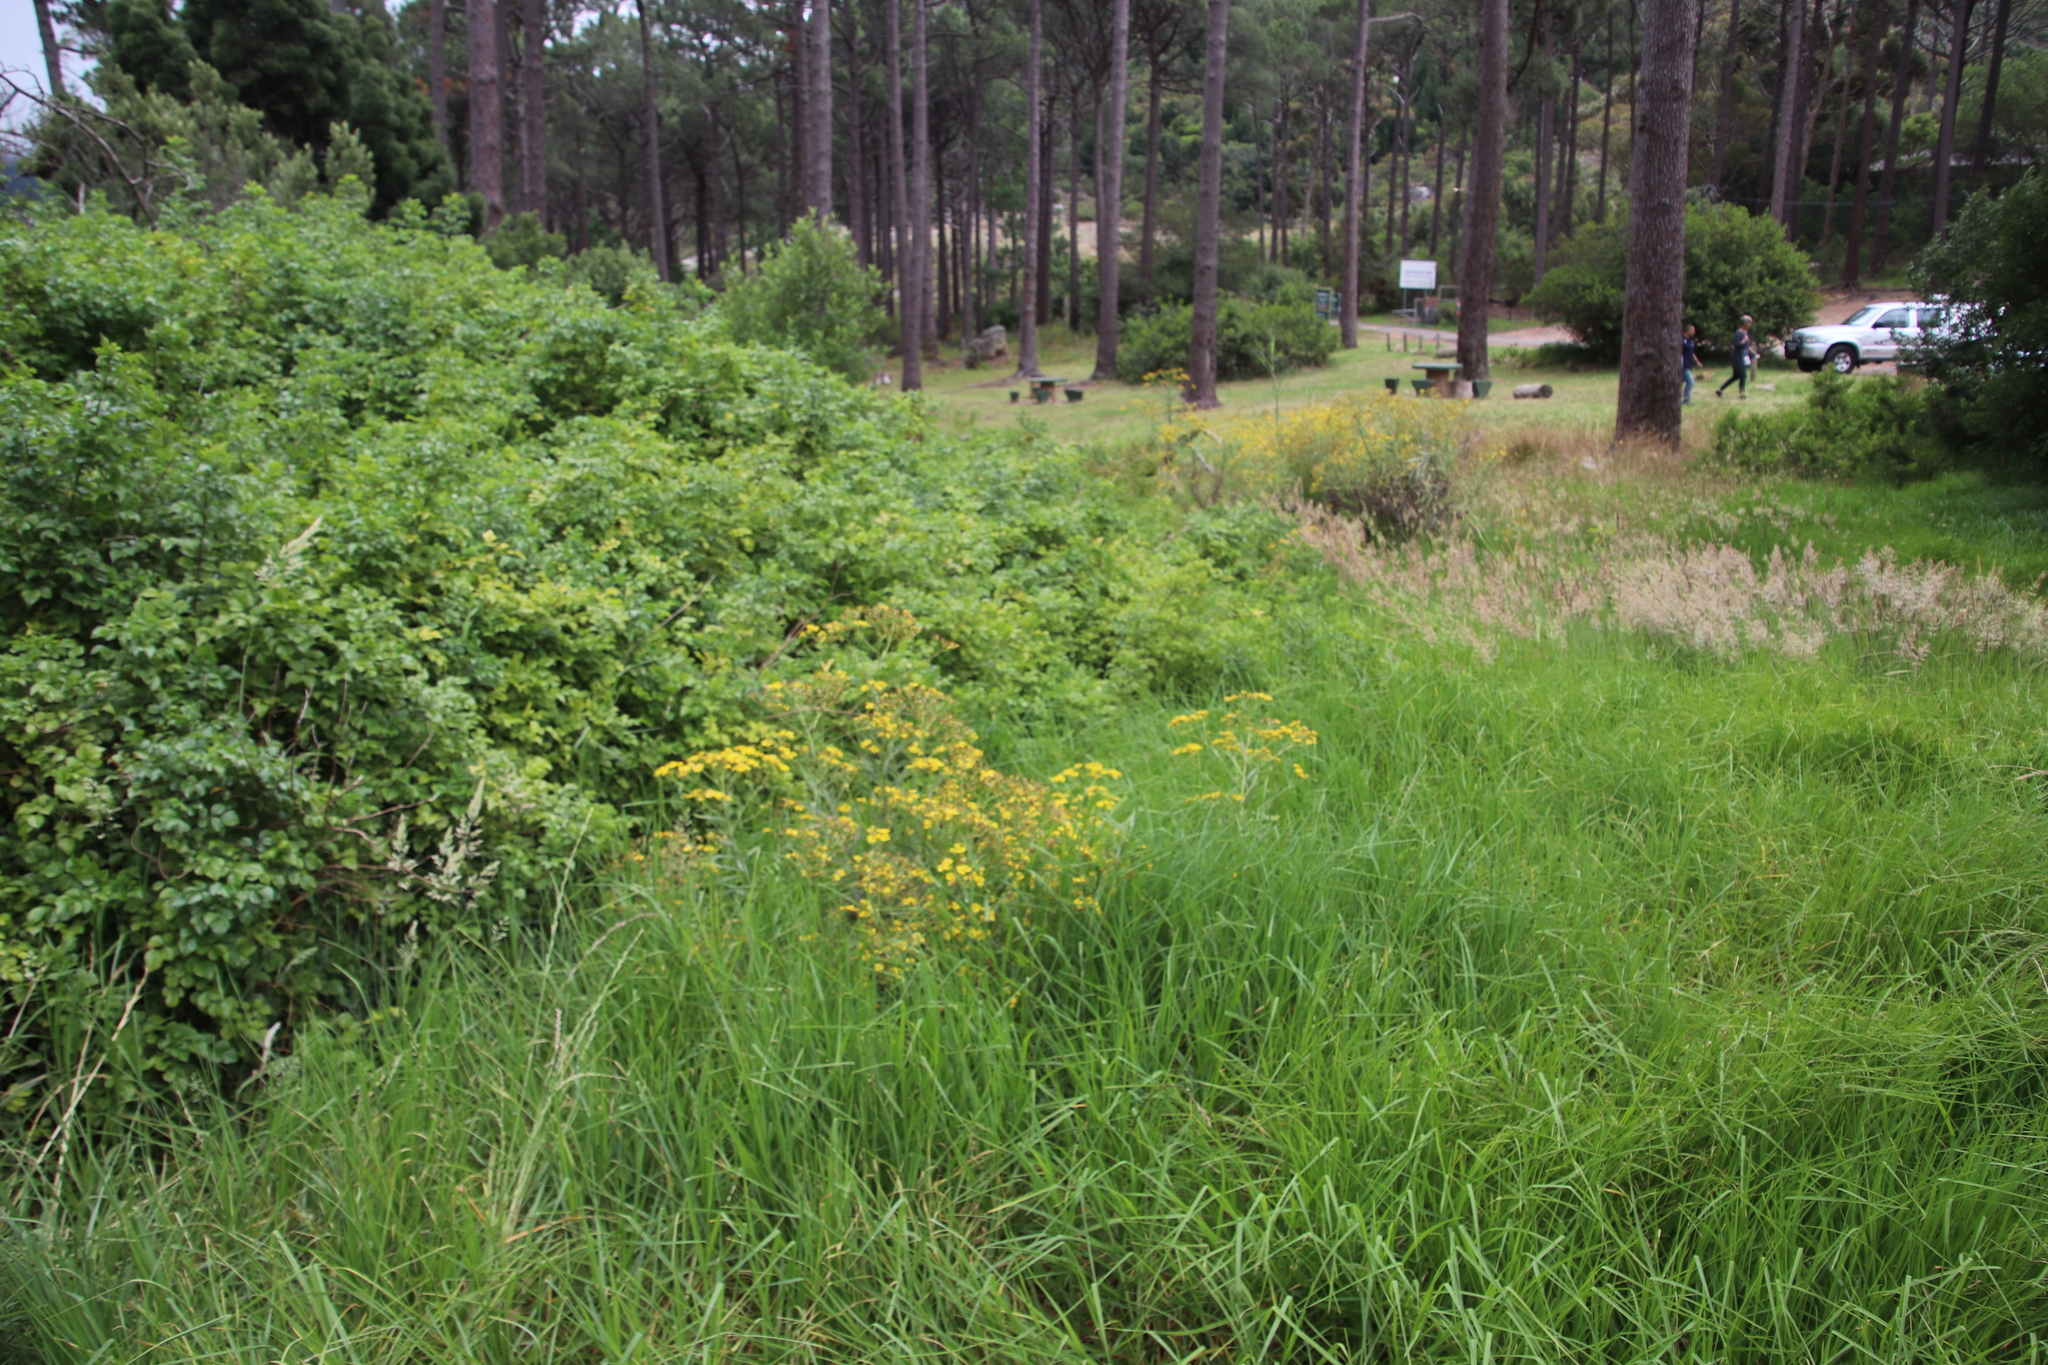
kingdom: Plantae
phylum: Tracheophyta
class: Magnoliopsida
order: Asterales
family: Asteraceae
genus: Senecio
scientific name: Senecio pterophorus
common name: Shoddy ragwort
